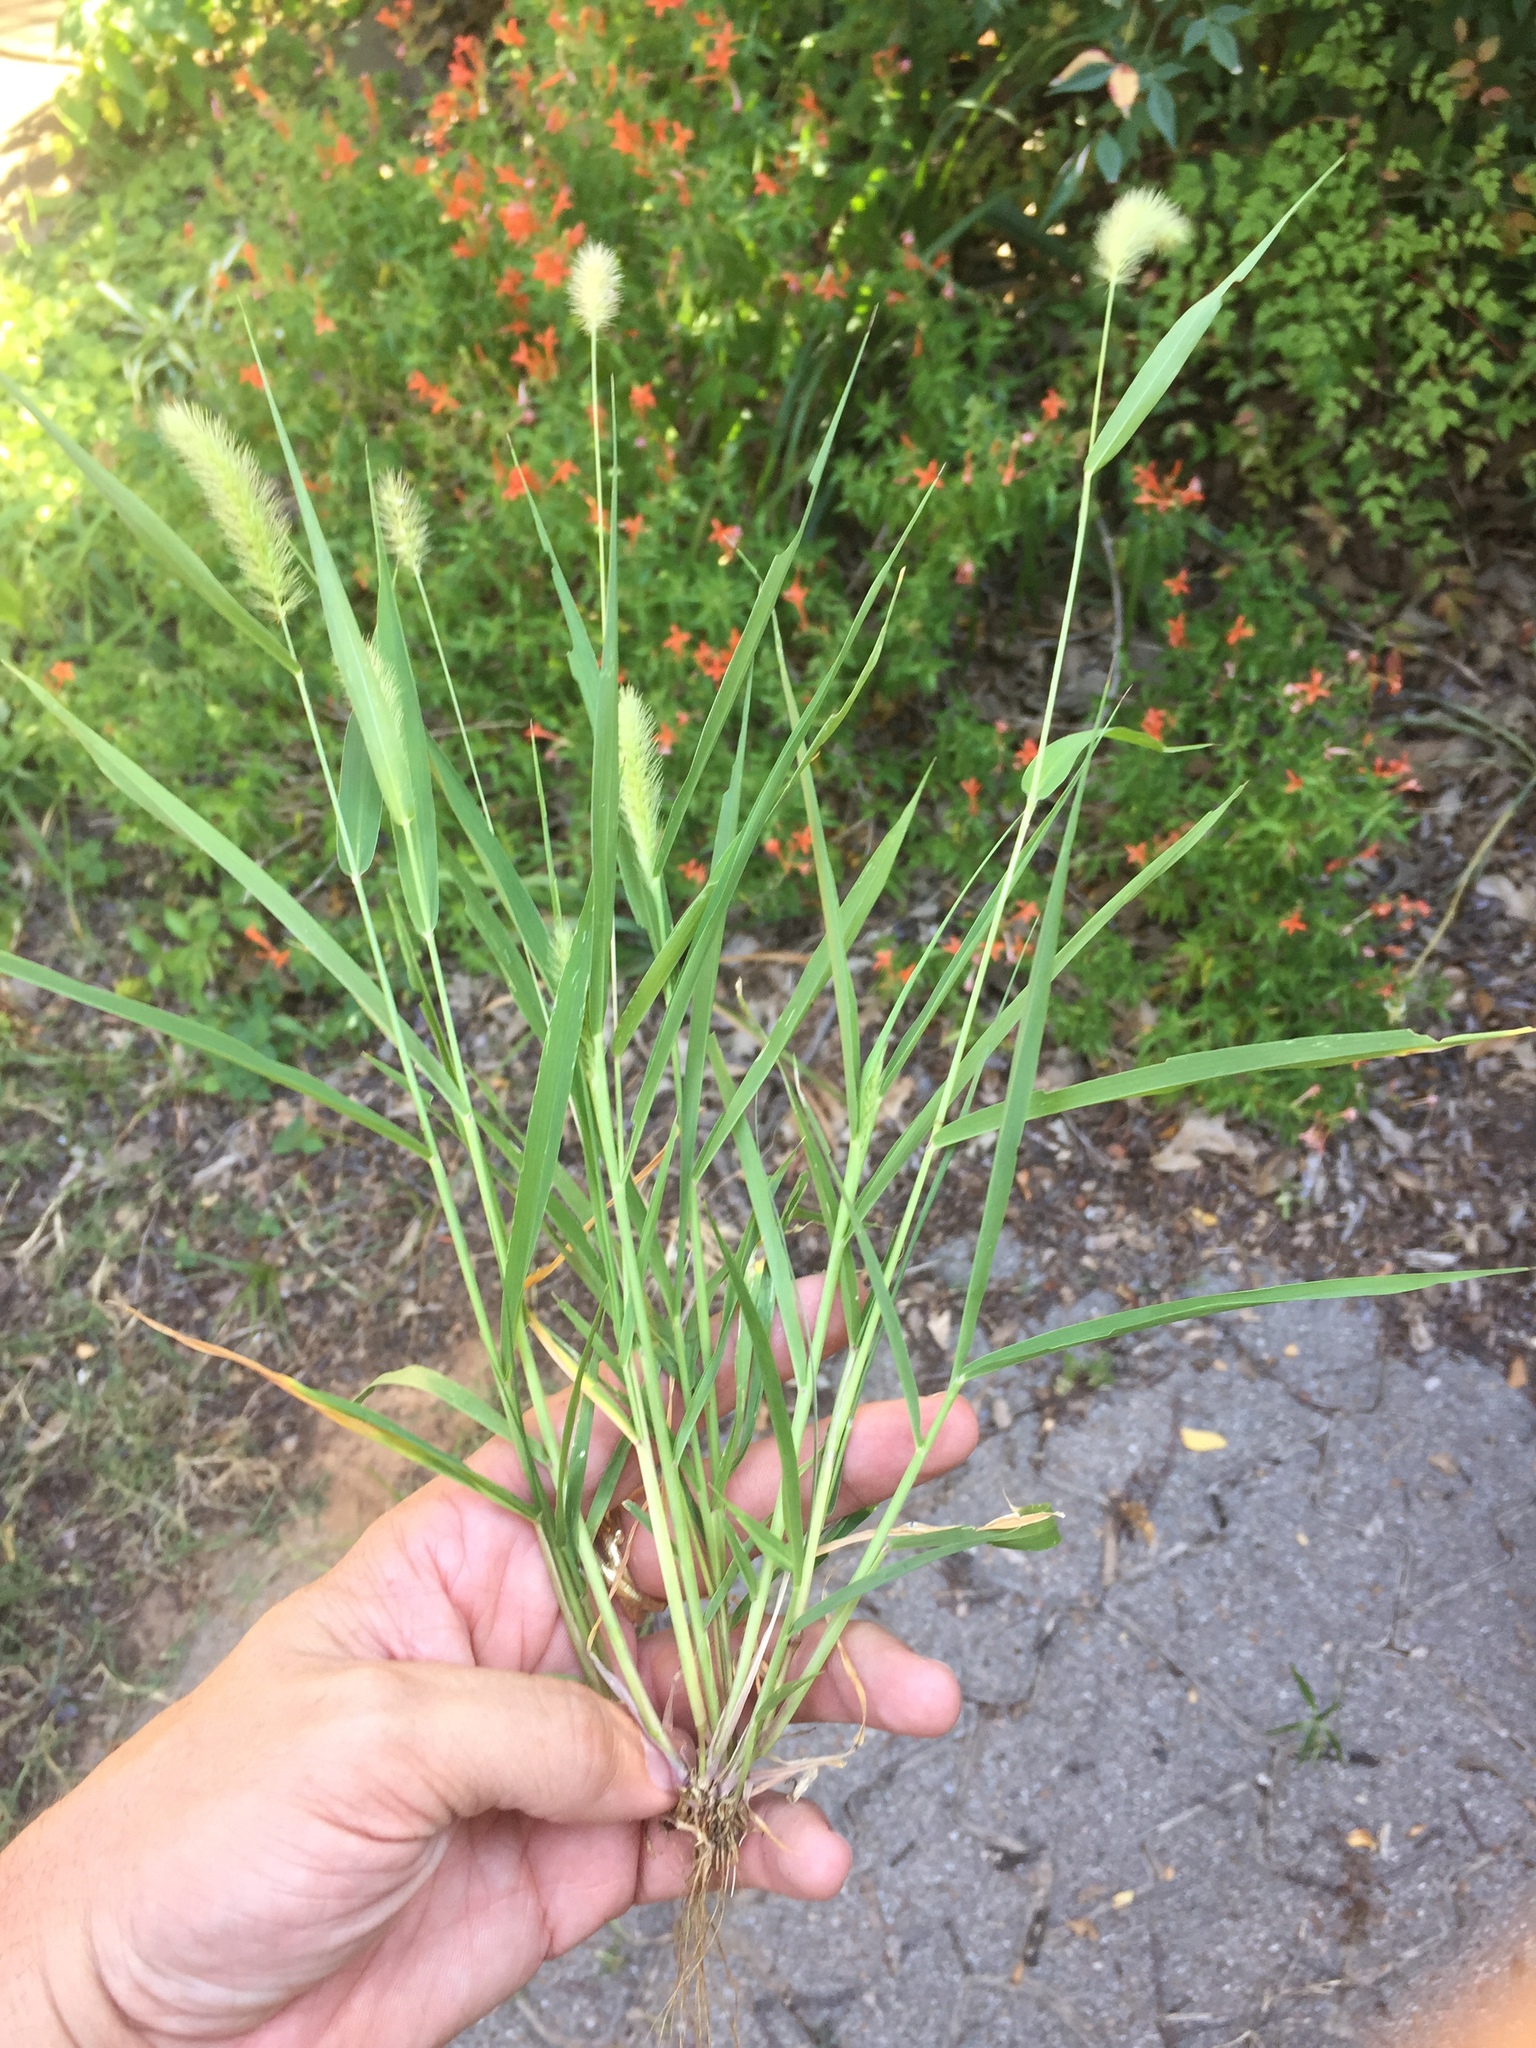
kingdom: Plantae
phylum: Tracheophyta
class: Liliopsida
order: Poales
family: Poaceae
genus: Setaria
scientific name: Setaria viridis
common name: Green bristlegrass
